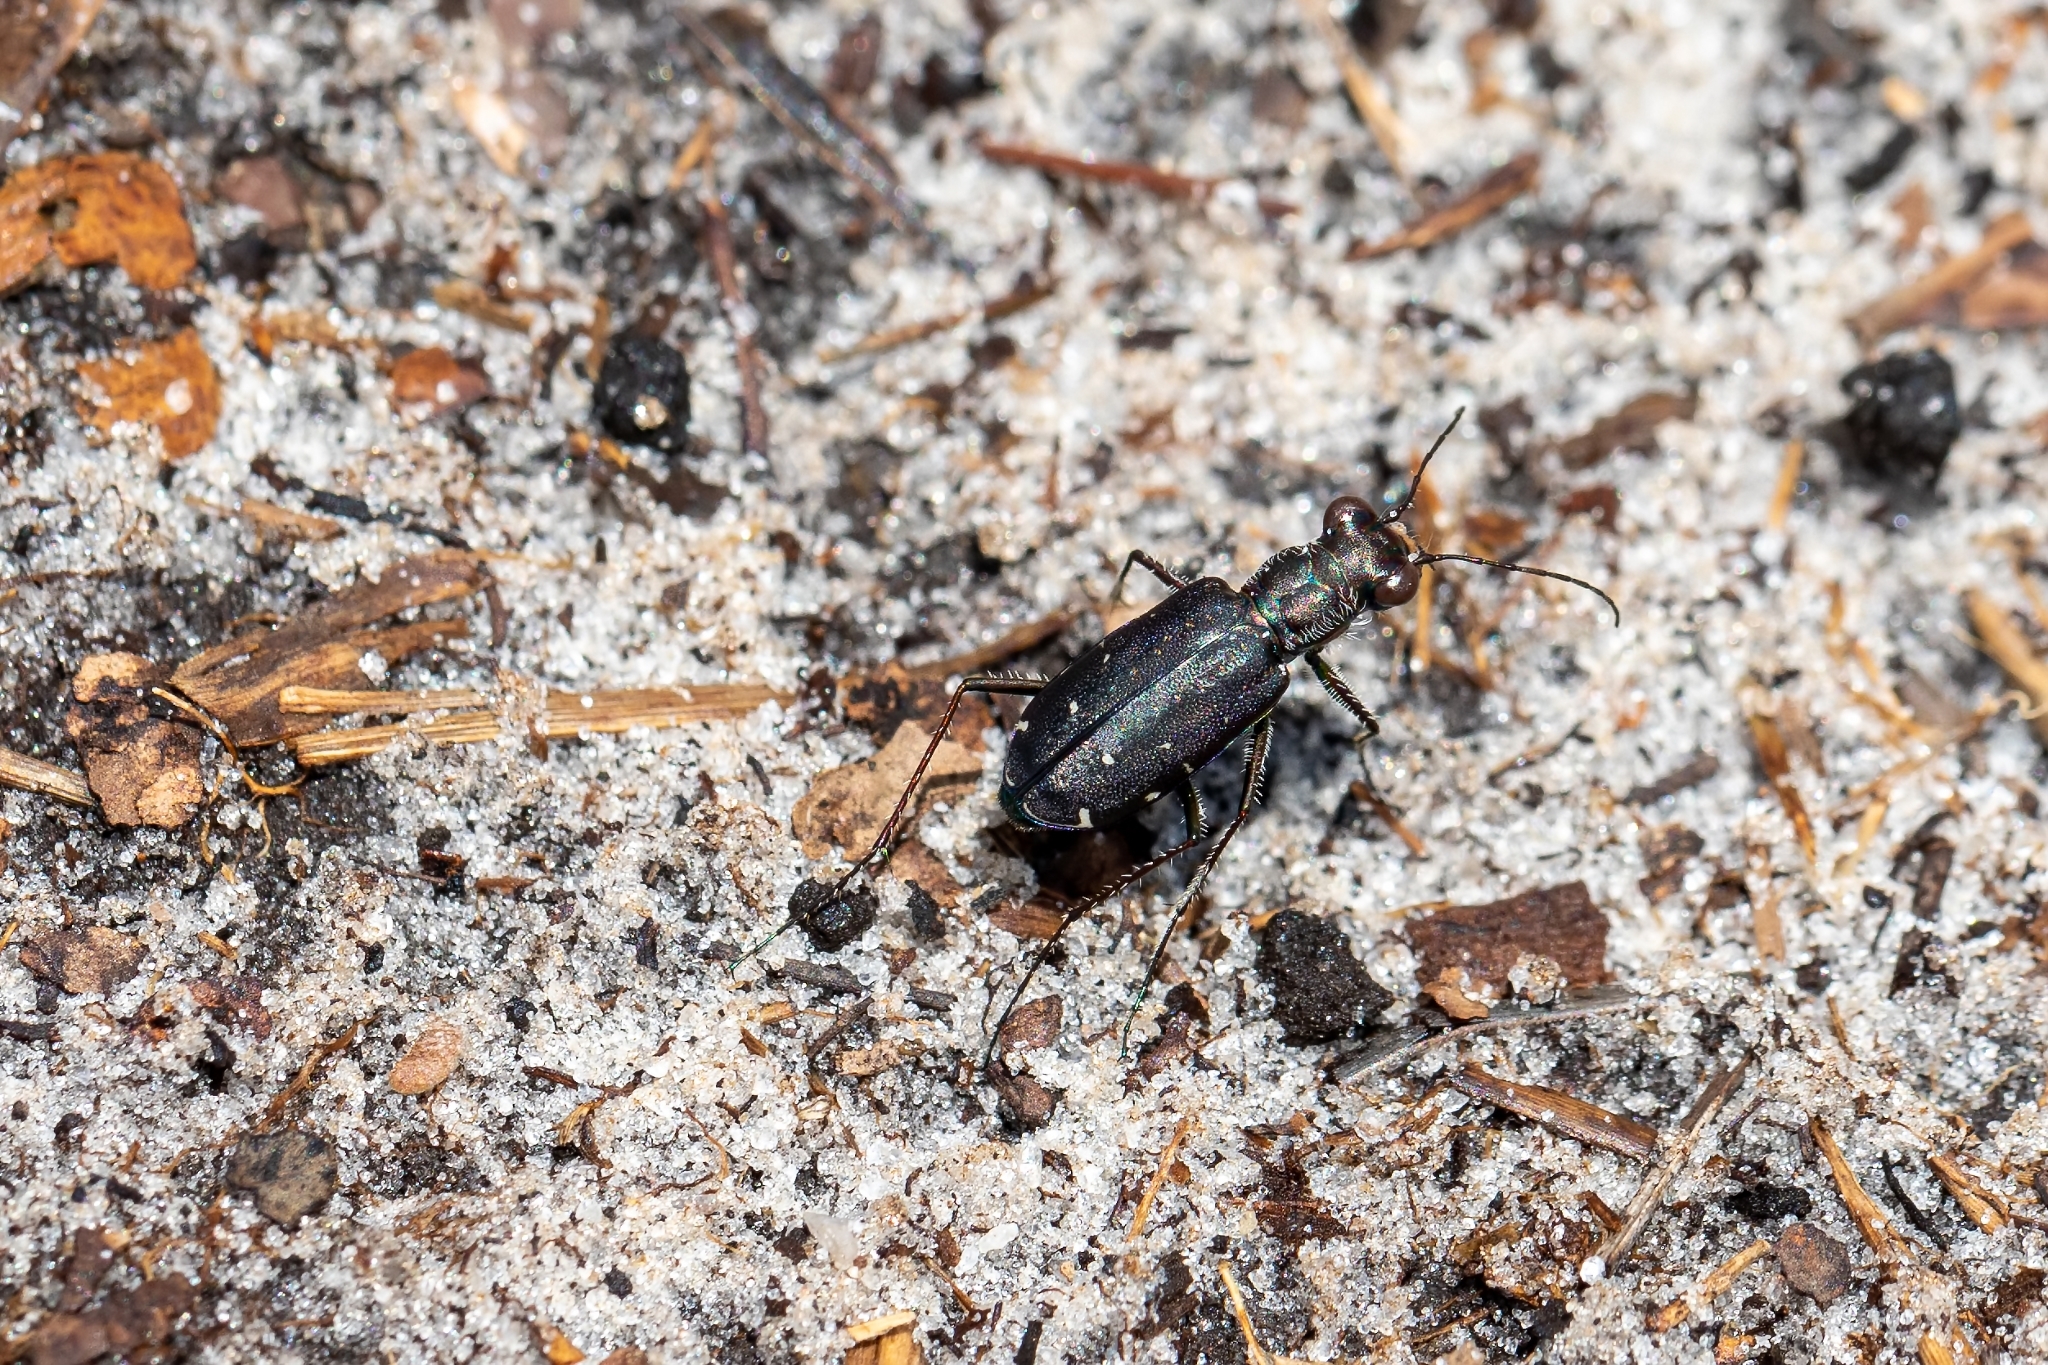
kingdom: Animalia
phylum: Arthropoda
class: Insecta
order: Coleoptera
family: Carabidae
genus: Cicindela
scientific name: Cicindela punctulata
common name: Punctured tiger beetle
